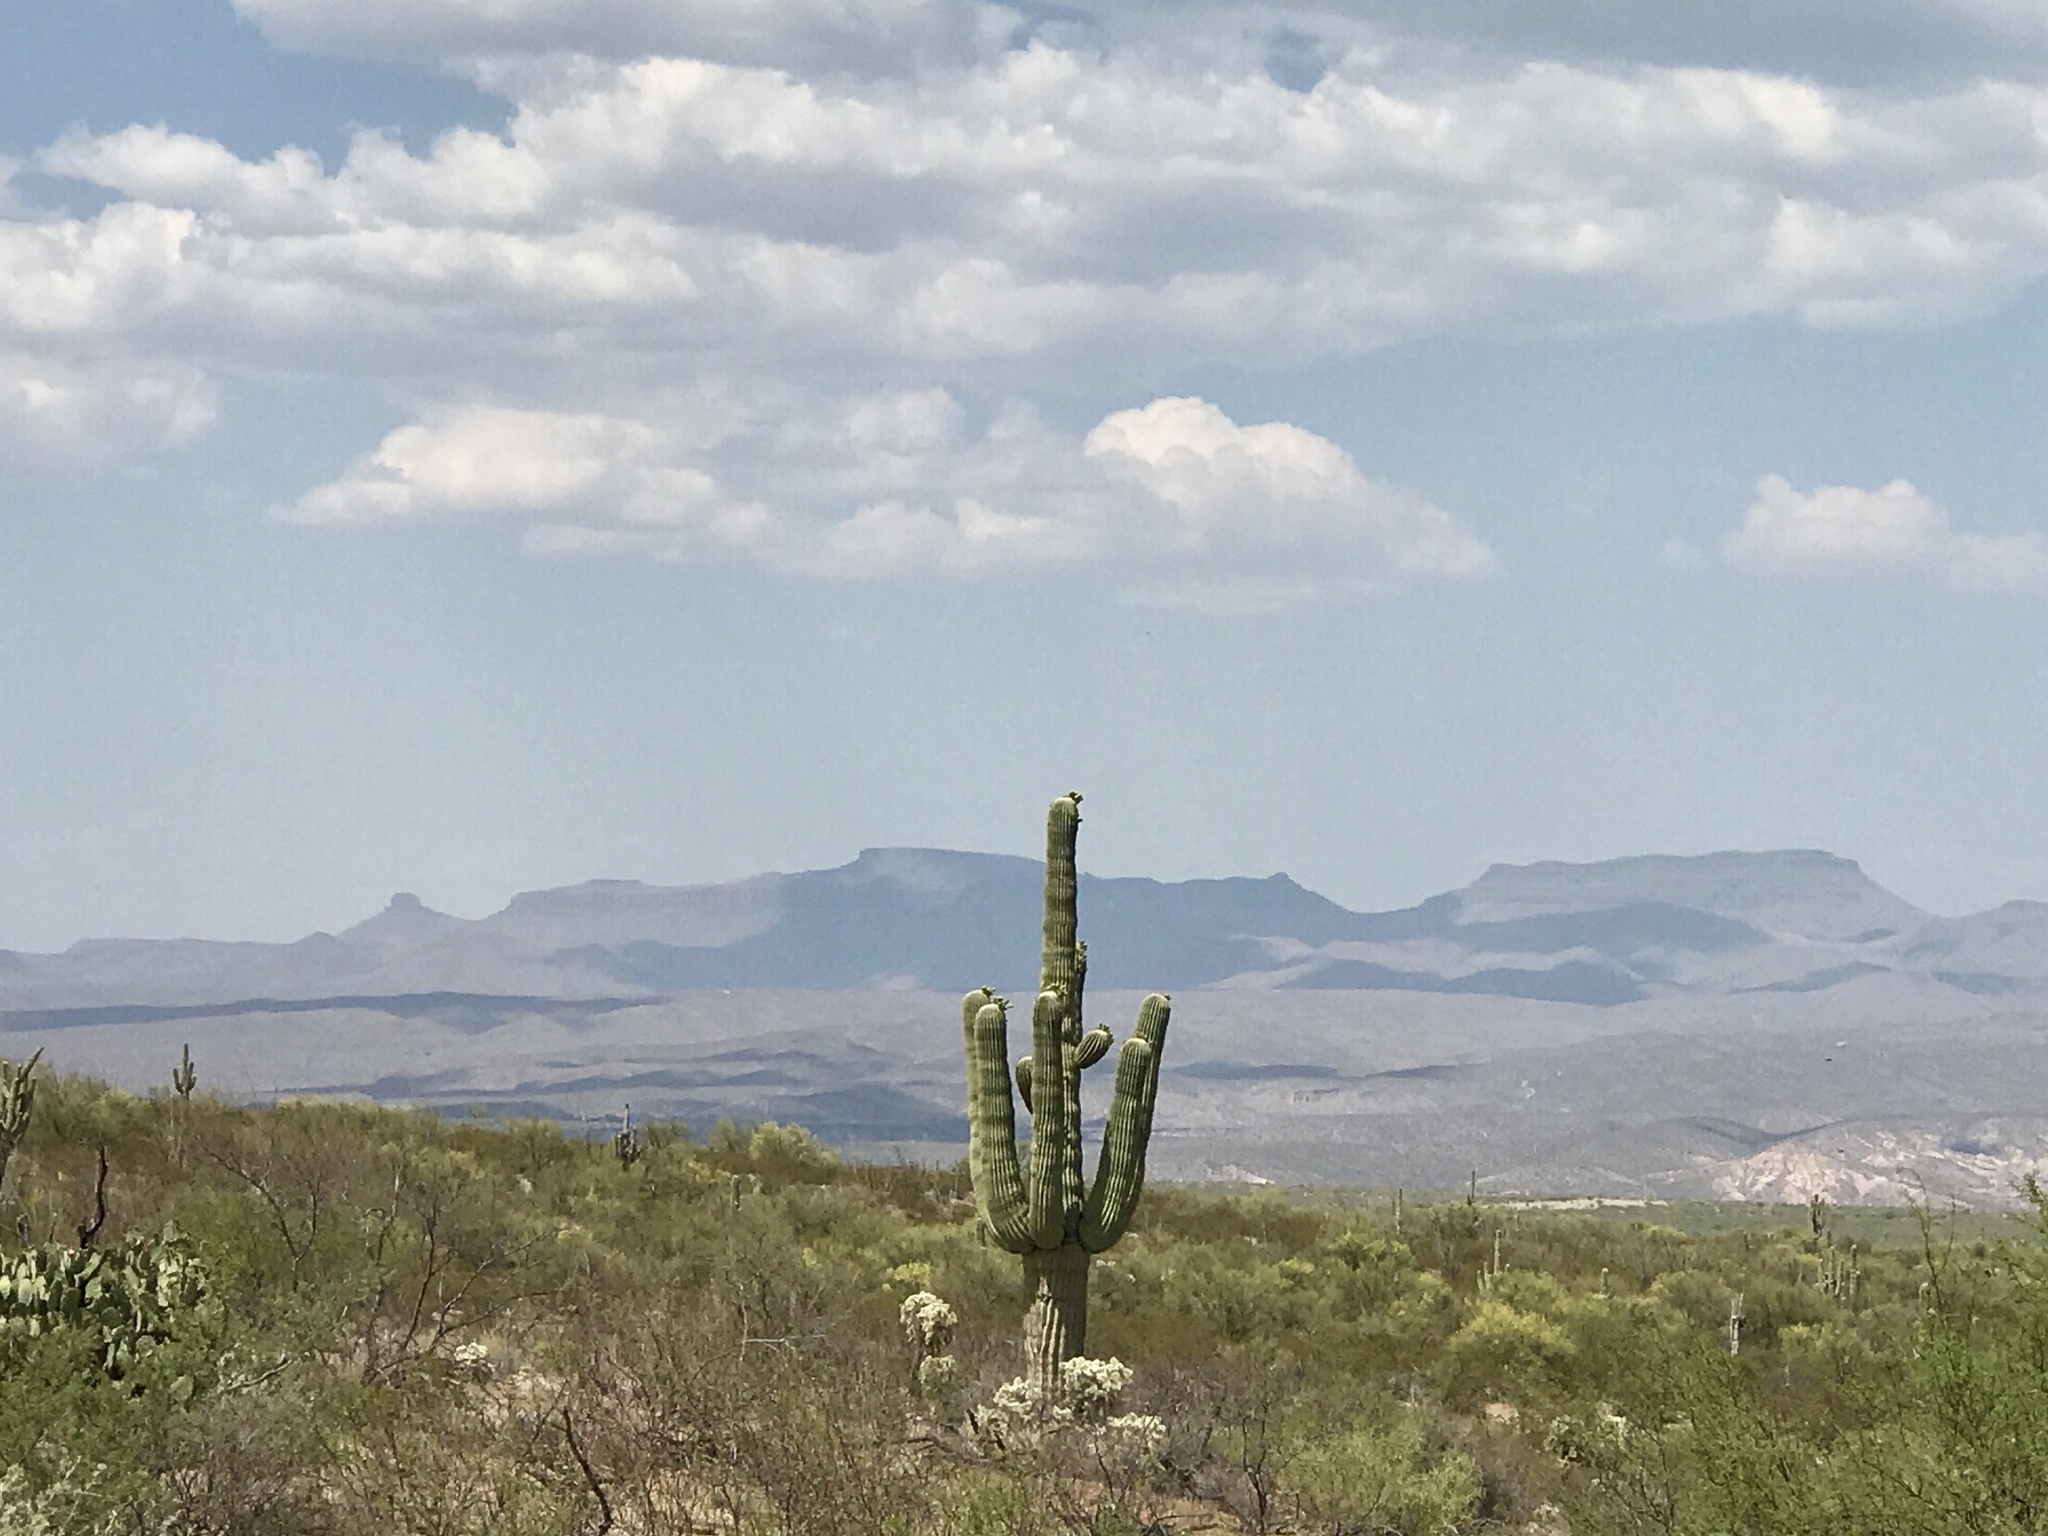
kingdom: Plantae
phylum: Tracheophyta
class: Magnoliopsida
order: Caryophyllales
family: Cactaceae
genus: Carnegiea
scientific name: Carnegiea gigantea
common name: Saguaro
